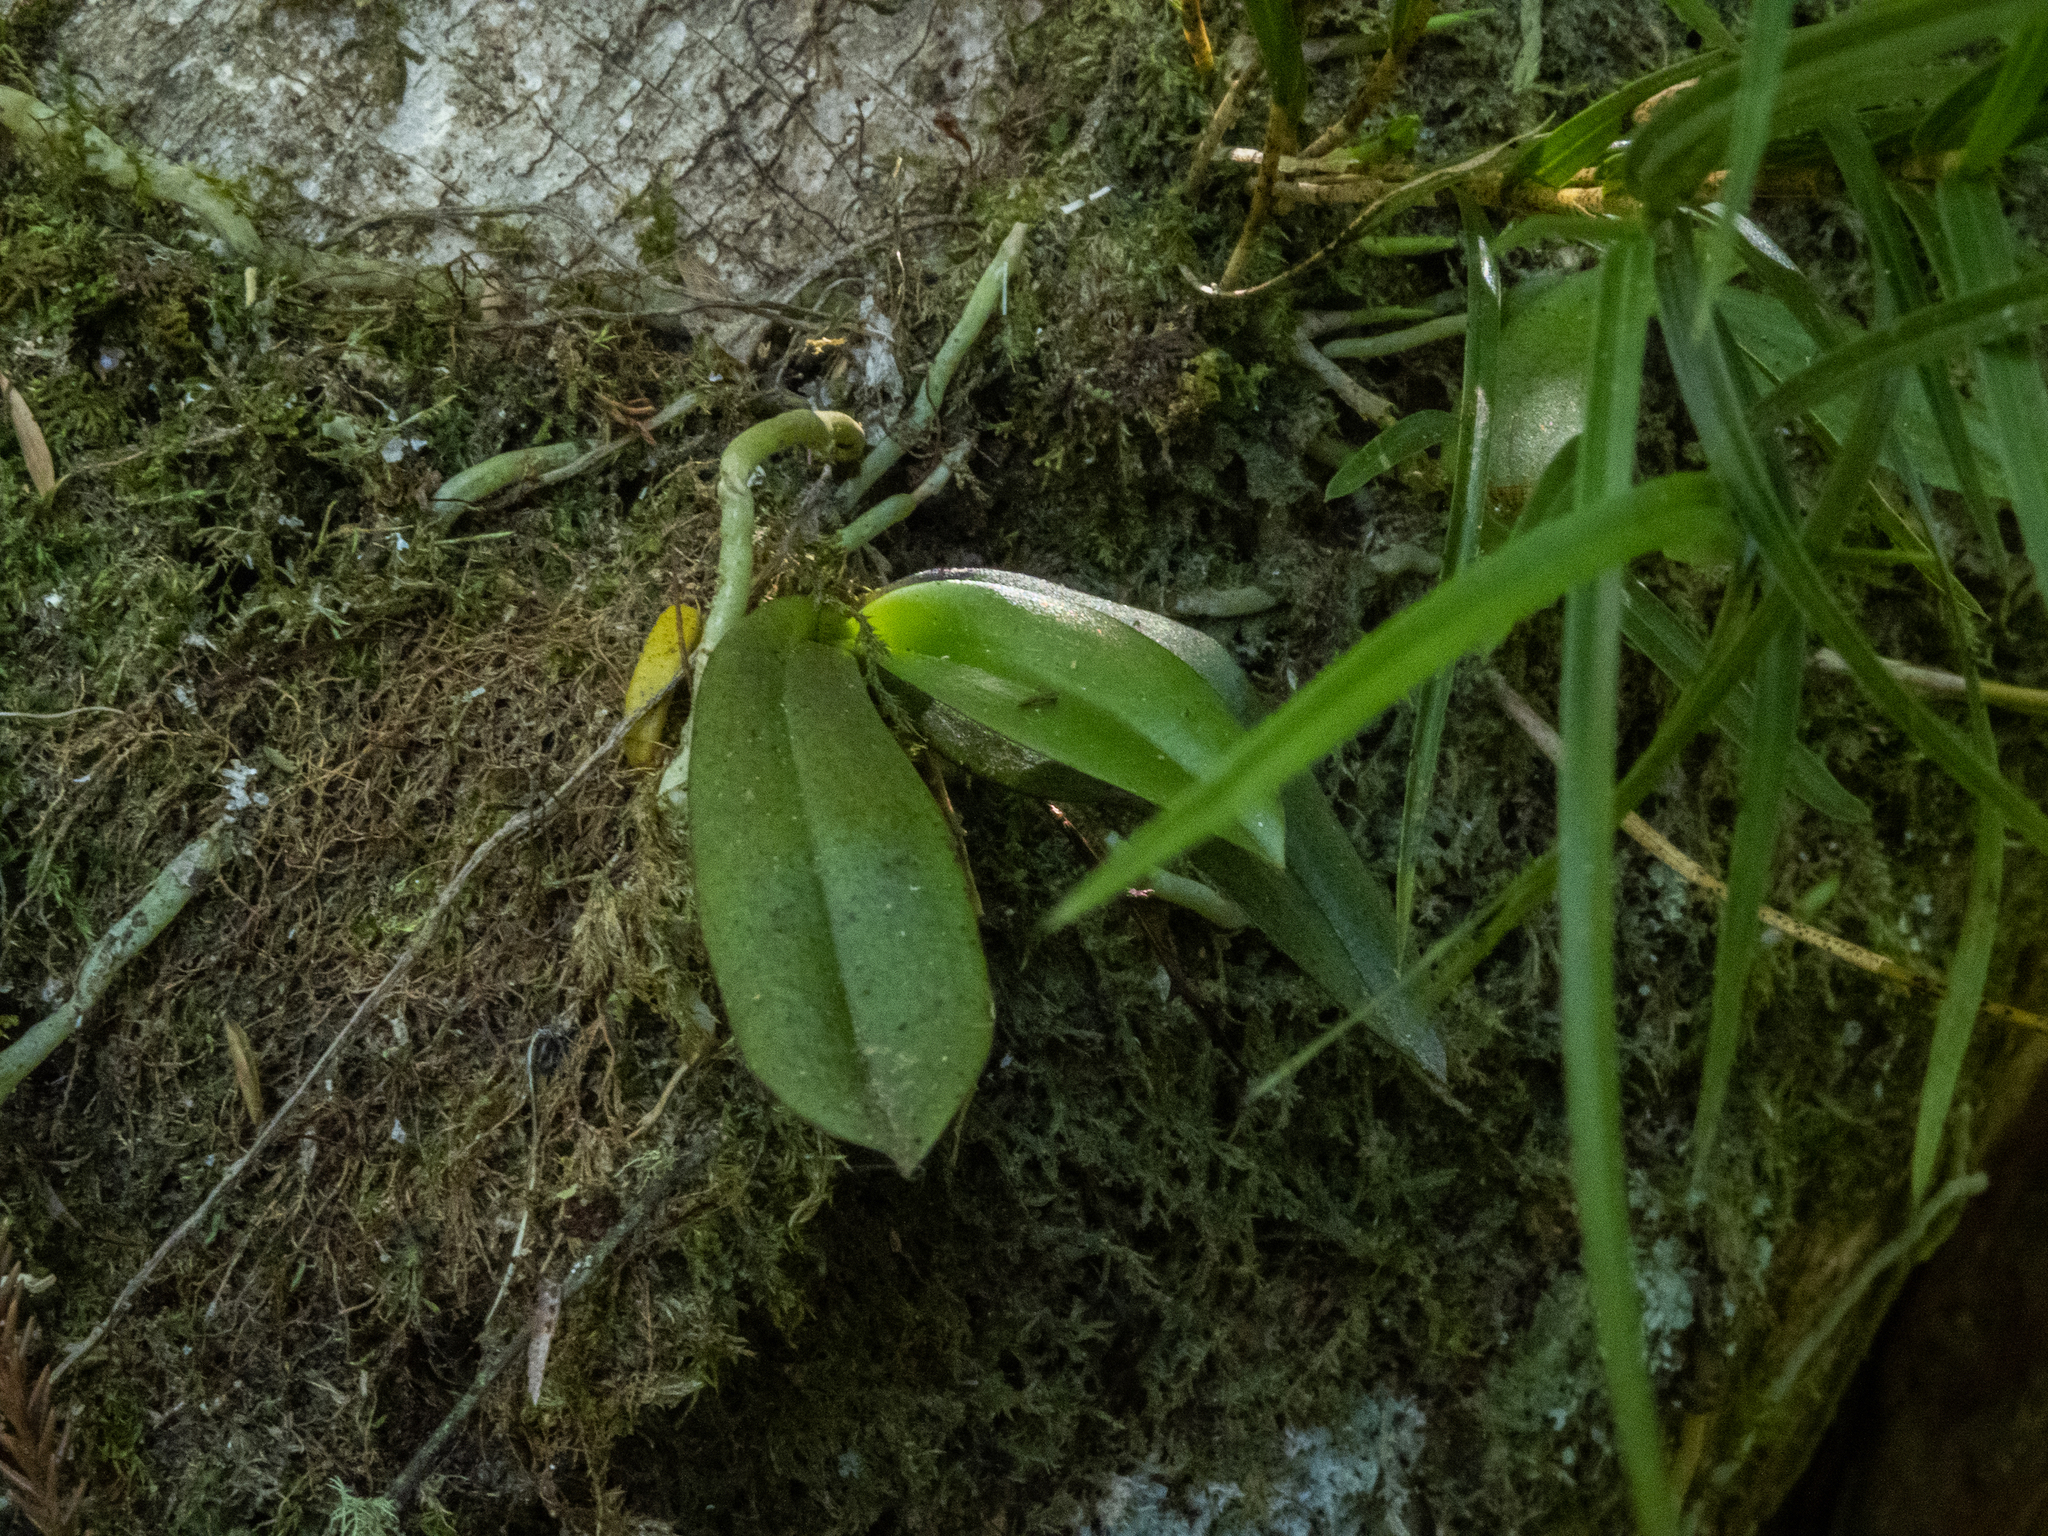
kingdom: Plantae
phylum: Tracheophyta
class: Liliopsida
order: Asparagales
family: Orchidaceae
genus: Drymoanthus
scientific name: Drymoanthus adversus
